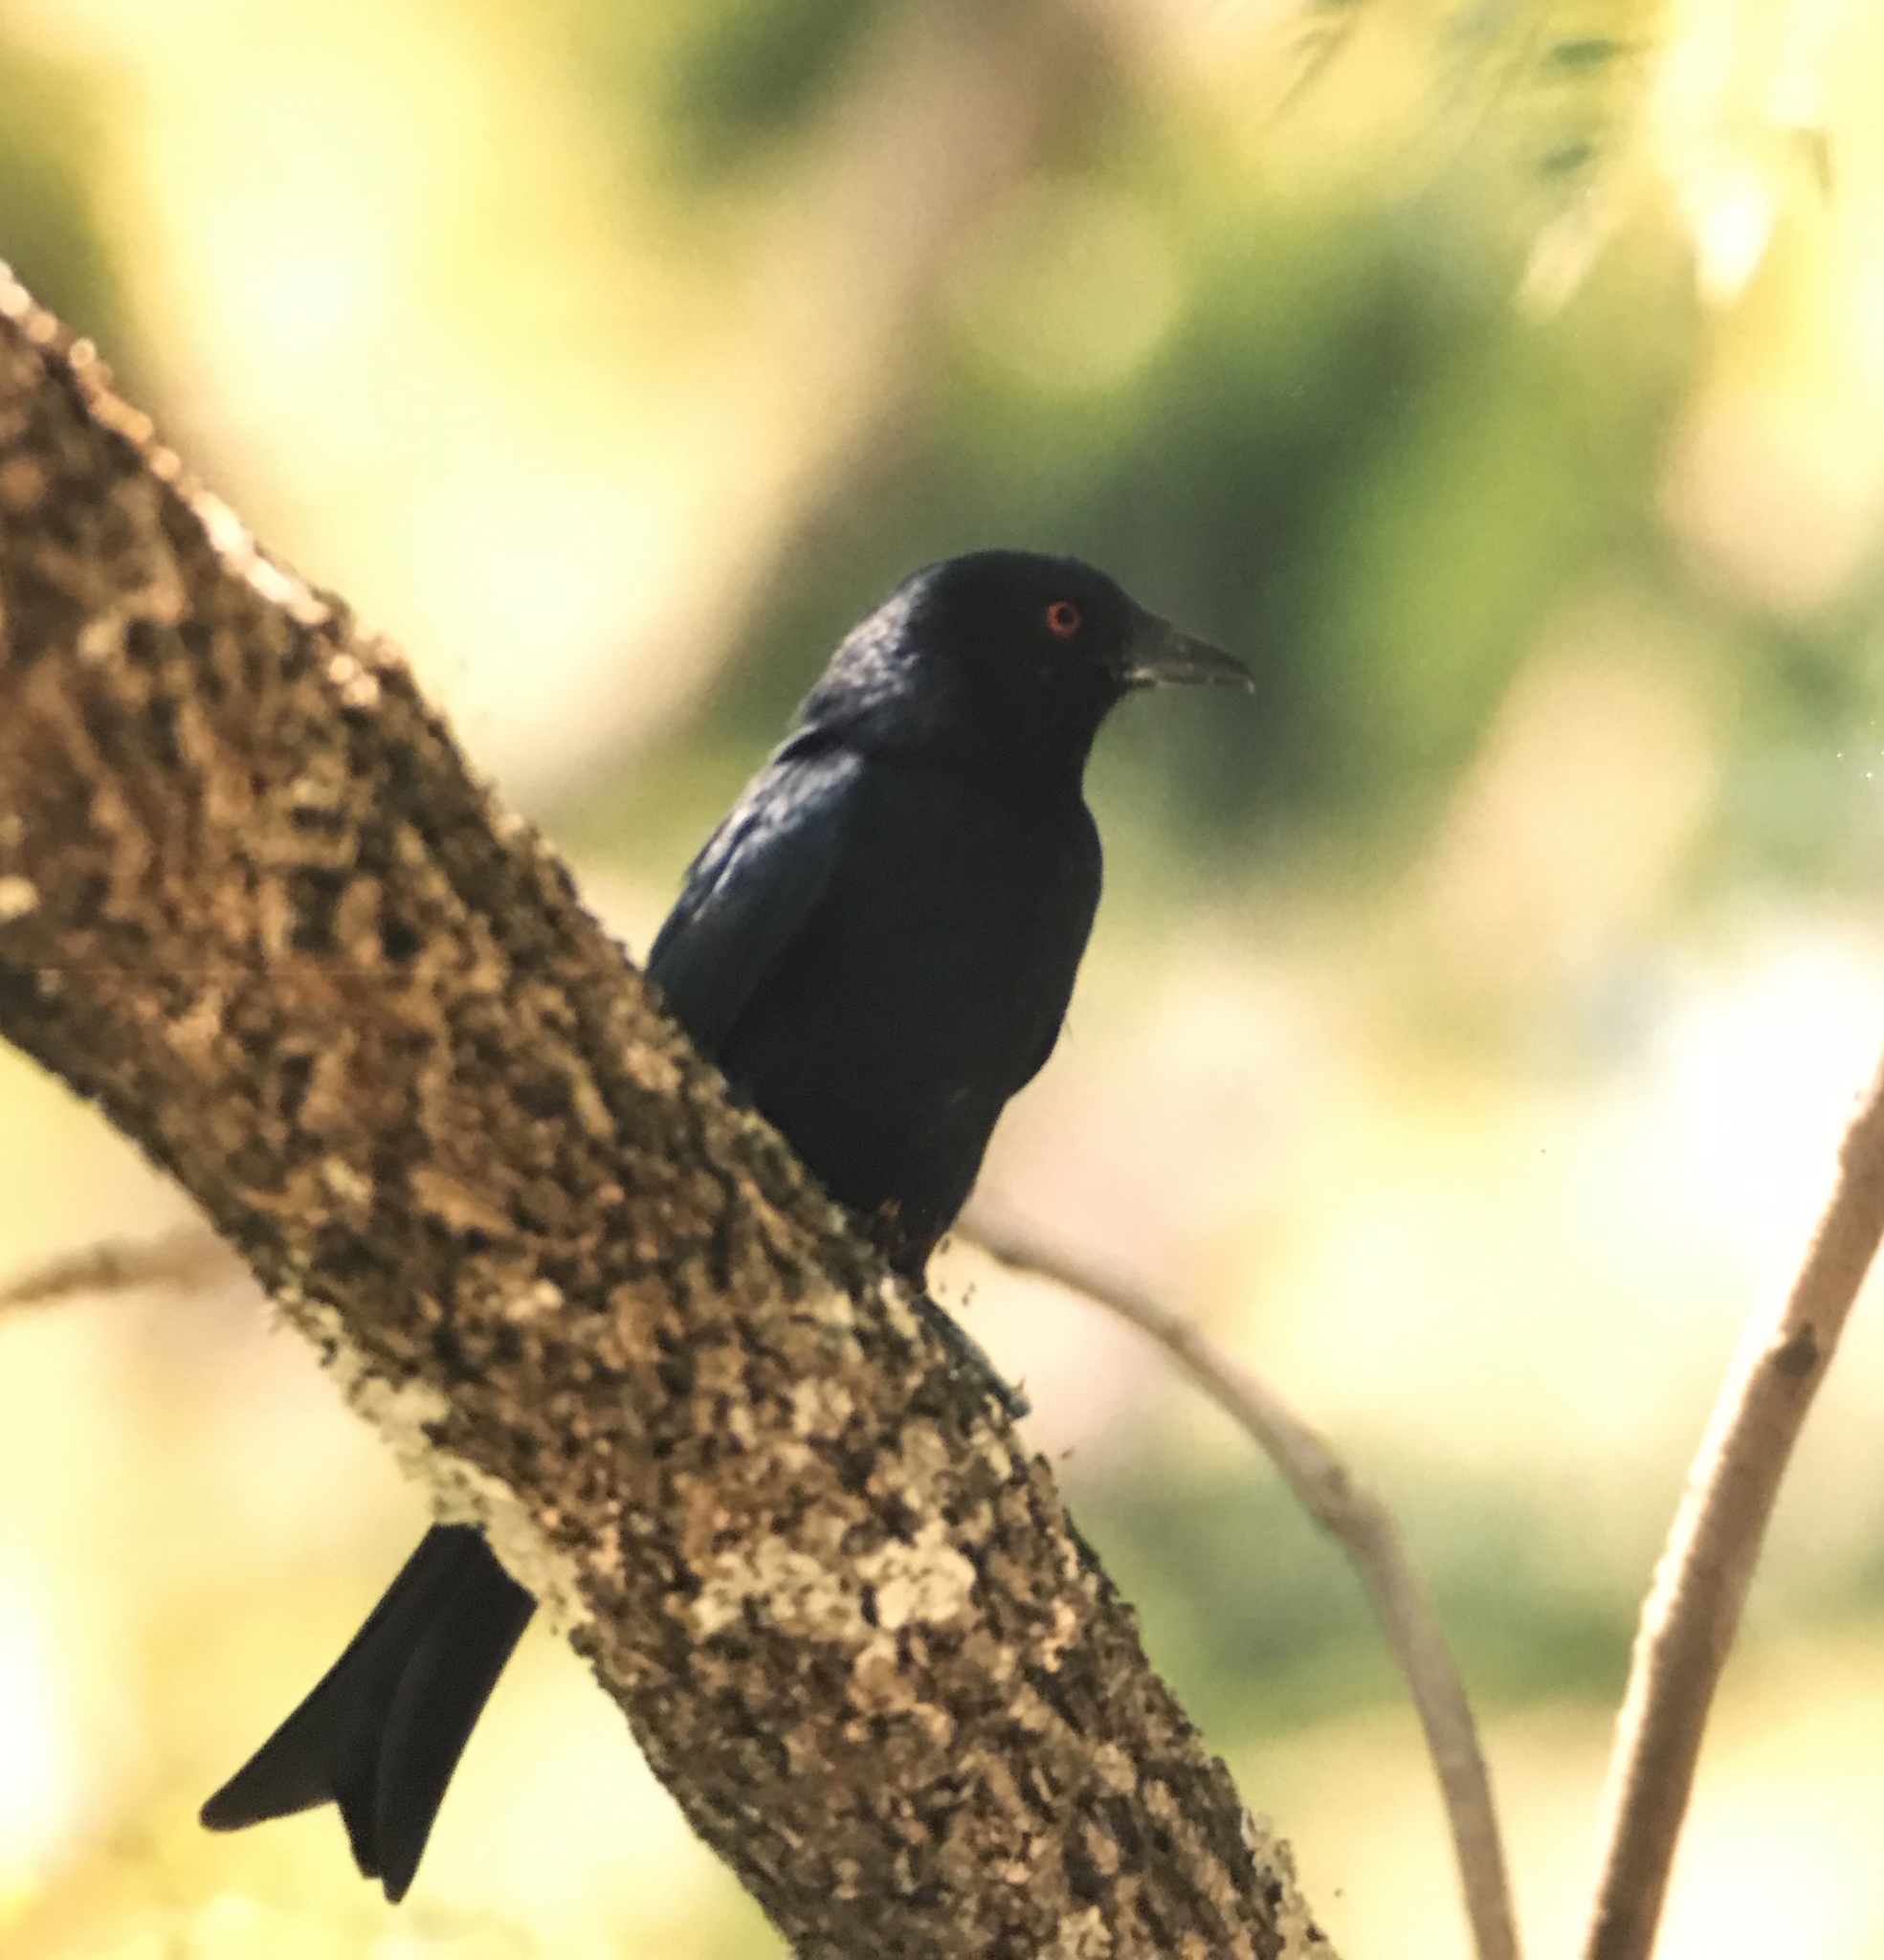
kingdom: Animalia
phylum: Chordata
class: Aves
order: Passeriformes
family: Dicruridae
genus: Dicrurus
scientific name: Dicrurus adsimilis
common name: Fork-tailed drongo
